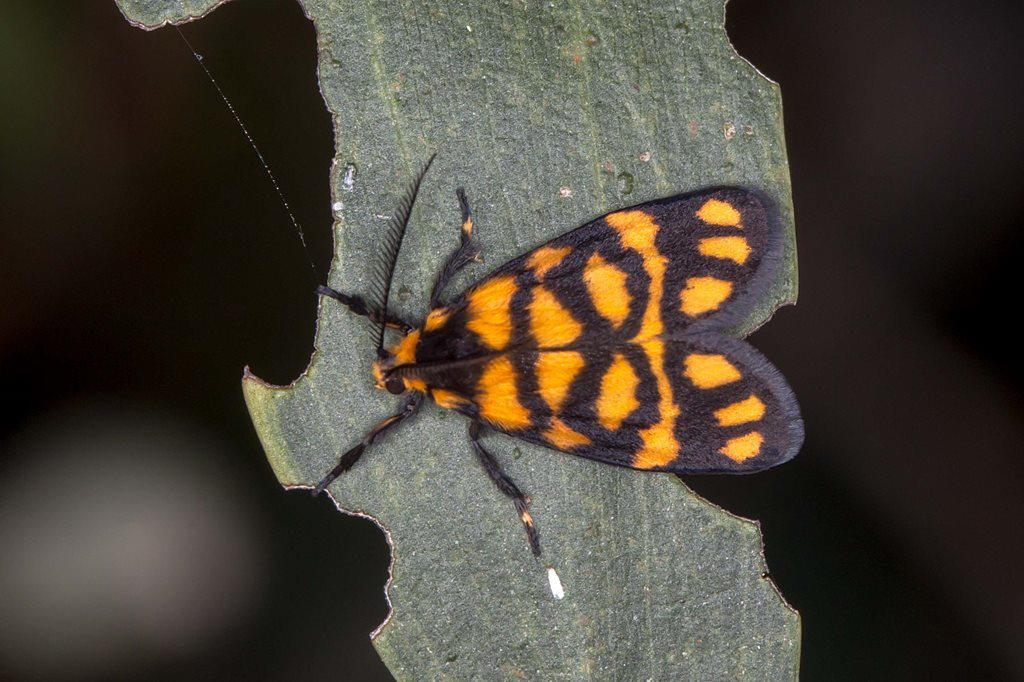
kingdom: Animalia
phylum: Arthropoda
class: Insecta
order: Lepidoptera
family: Erebidae
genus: Asura
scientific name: Asura lydia
